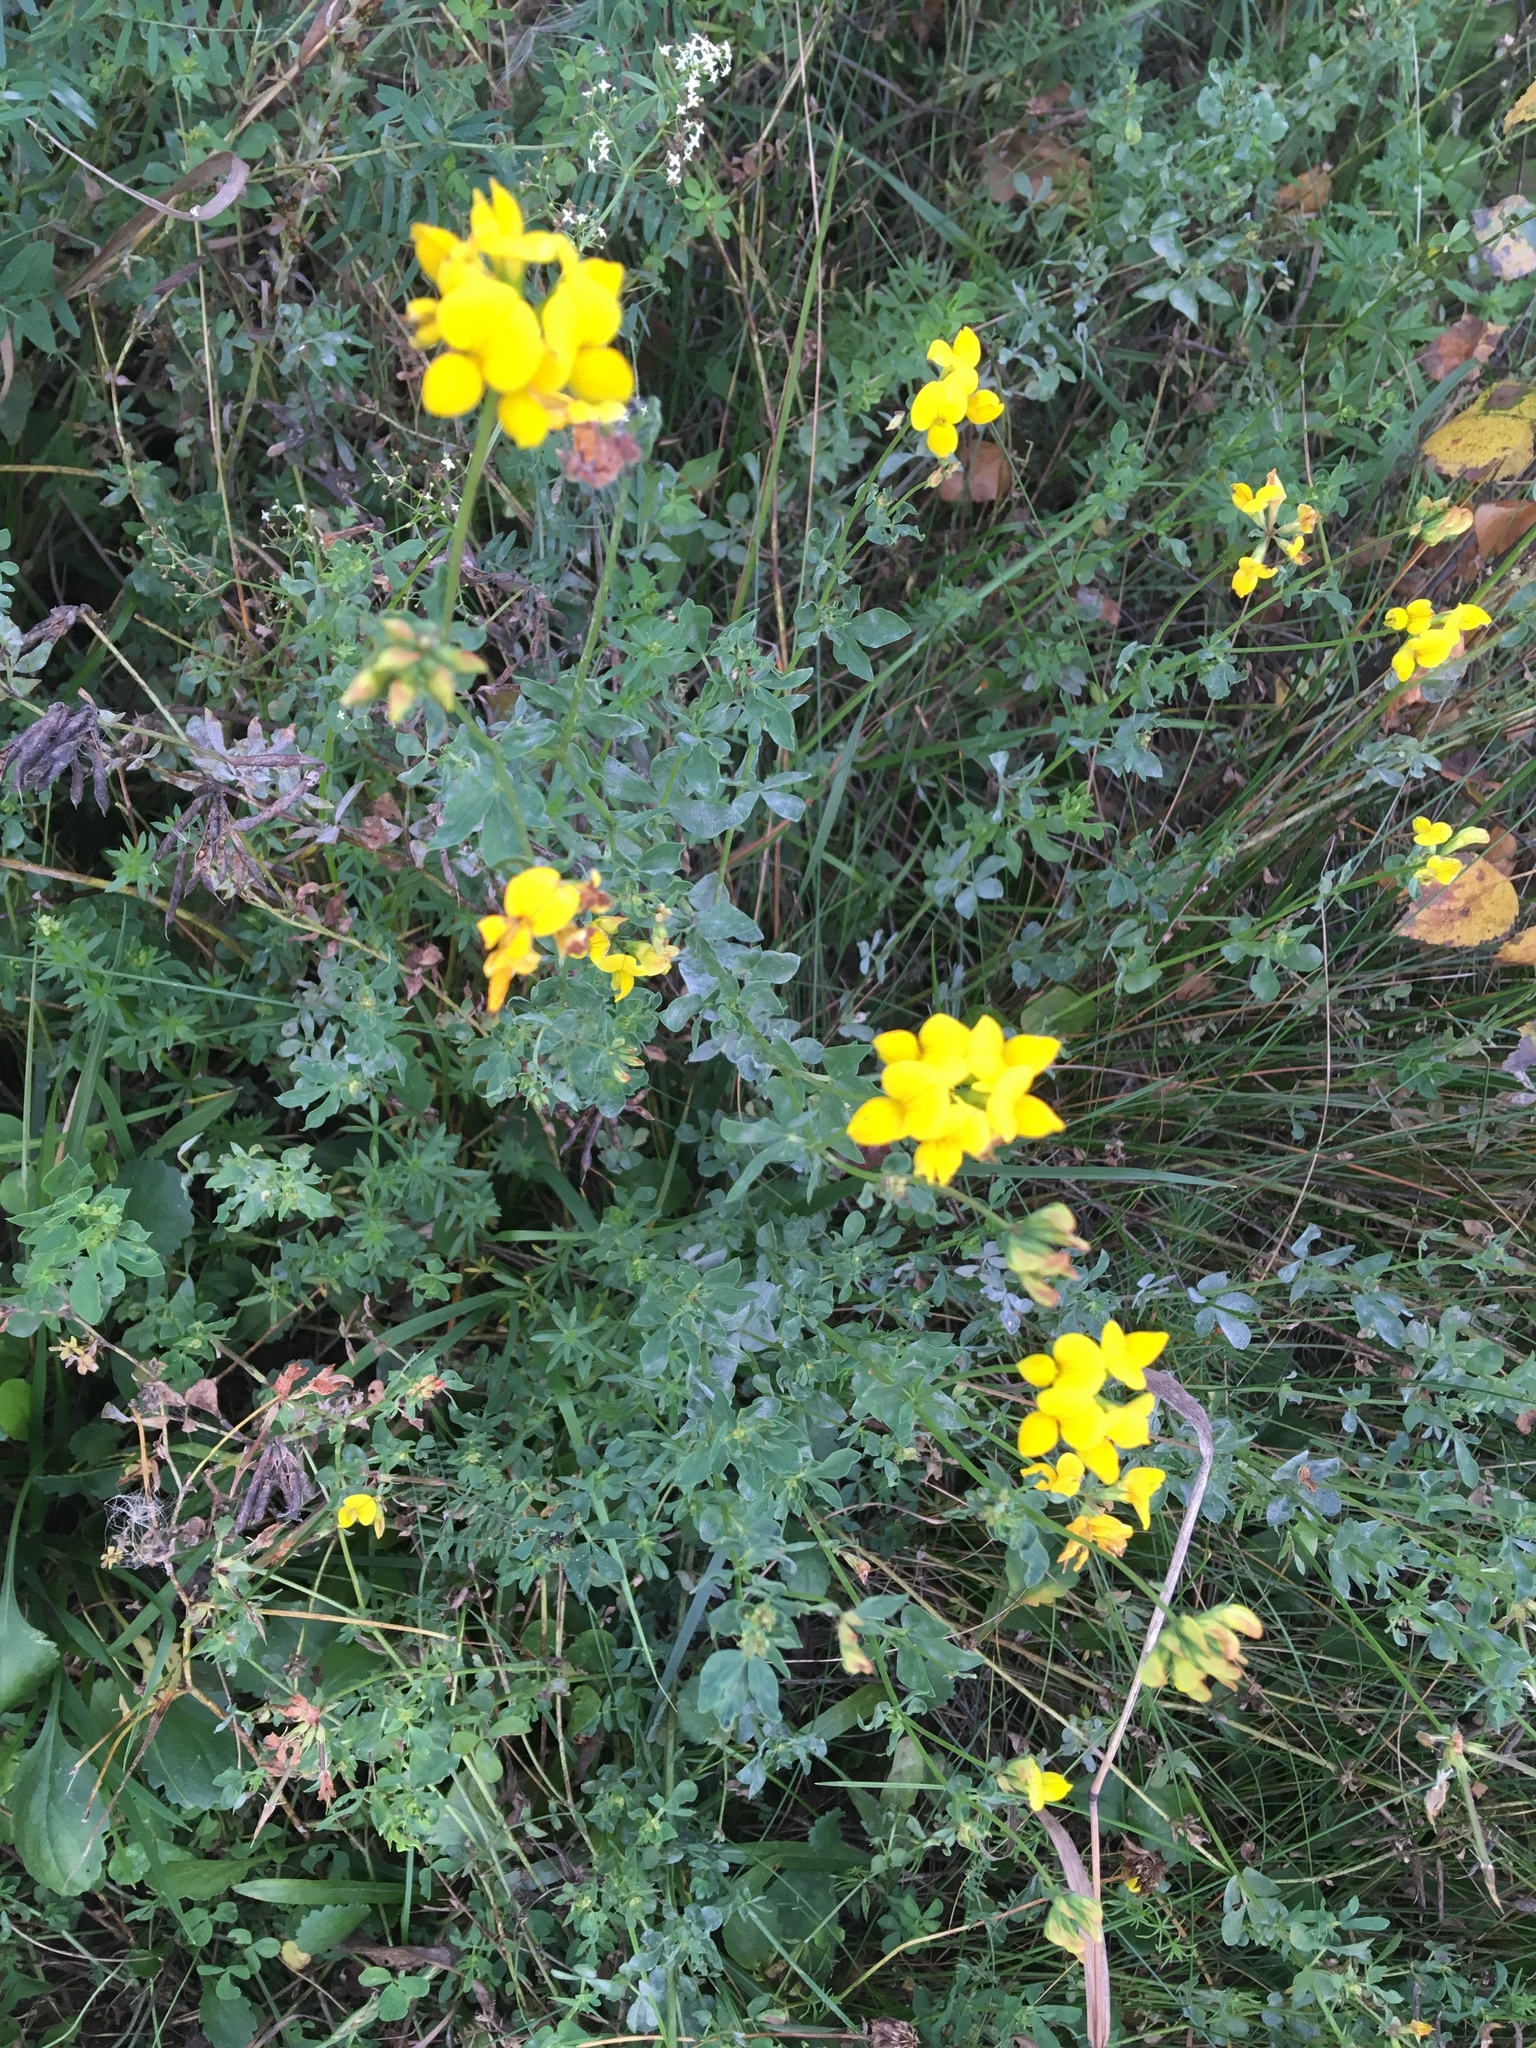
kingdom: Plantae
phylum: Tracheophyta
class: Magnoliopsida
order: Fabales
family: Fabaceae
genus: Lotus
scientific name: Lotus corniculatus
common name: Common bird's-foot-trefoil
